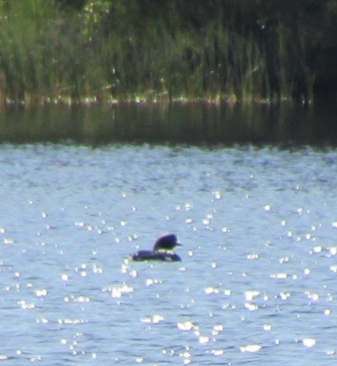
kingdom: Animalia
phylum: Chordata
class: Aves
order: Gaviiformes
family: Gaviidae
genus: Gavia
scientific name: Gavia arctica
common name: Black-throated loon
